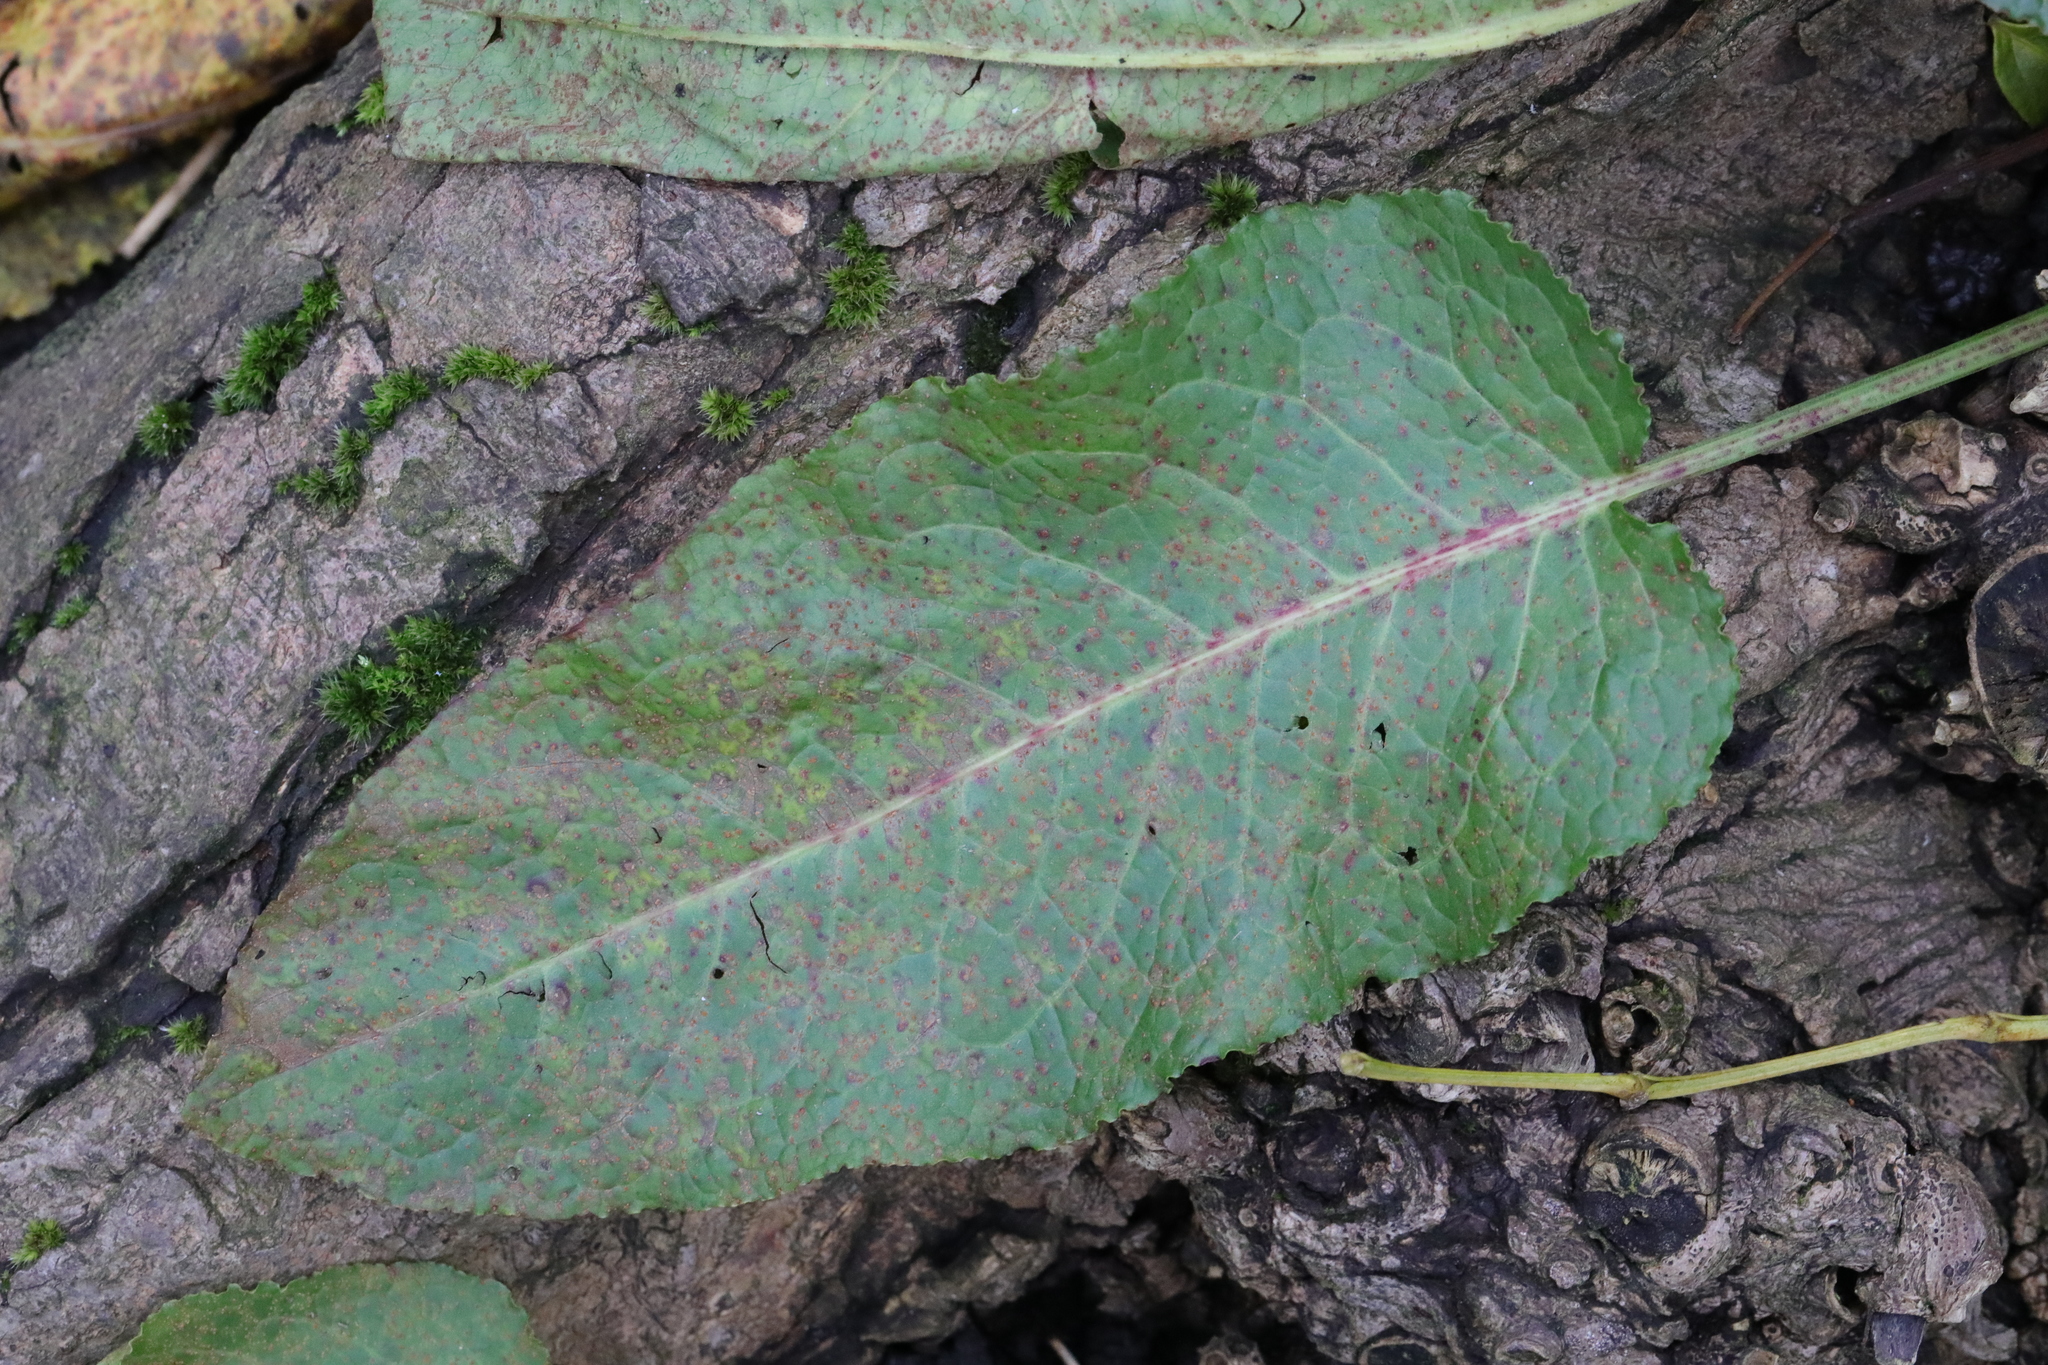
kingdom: Plantae
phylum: Tracheophyta
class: Magnoliopsida
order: Caryophyllales
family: Polygonaceae
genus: Rumex
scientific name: Rumex obtusifolius
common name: Bitter dock
